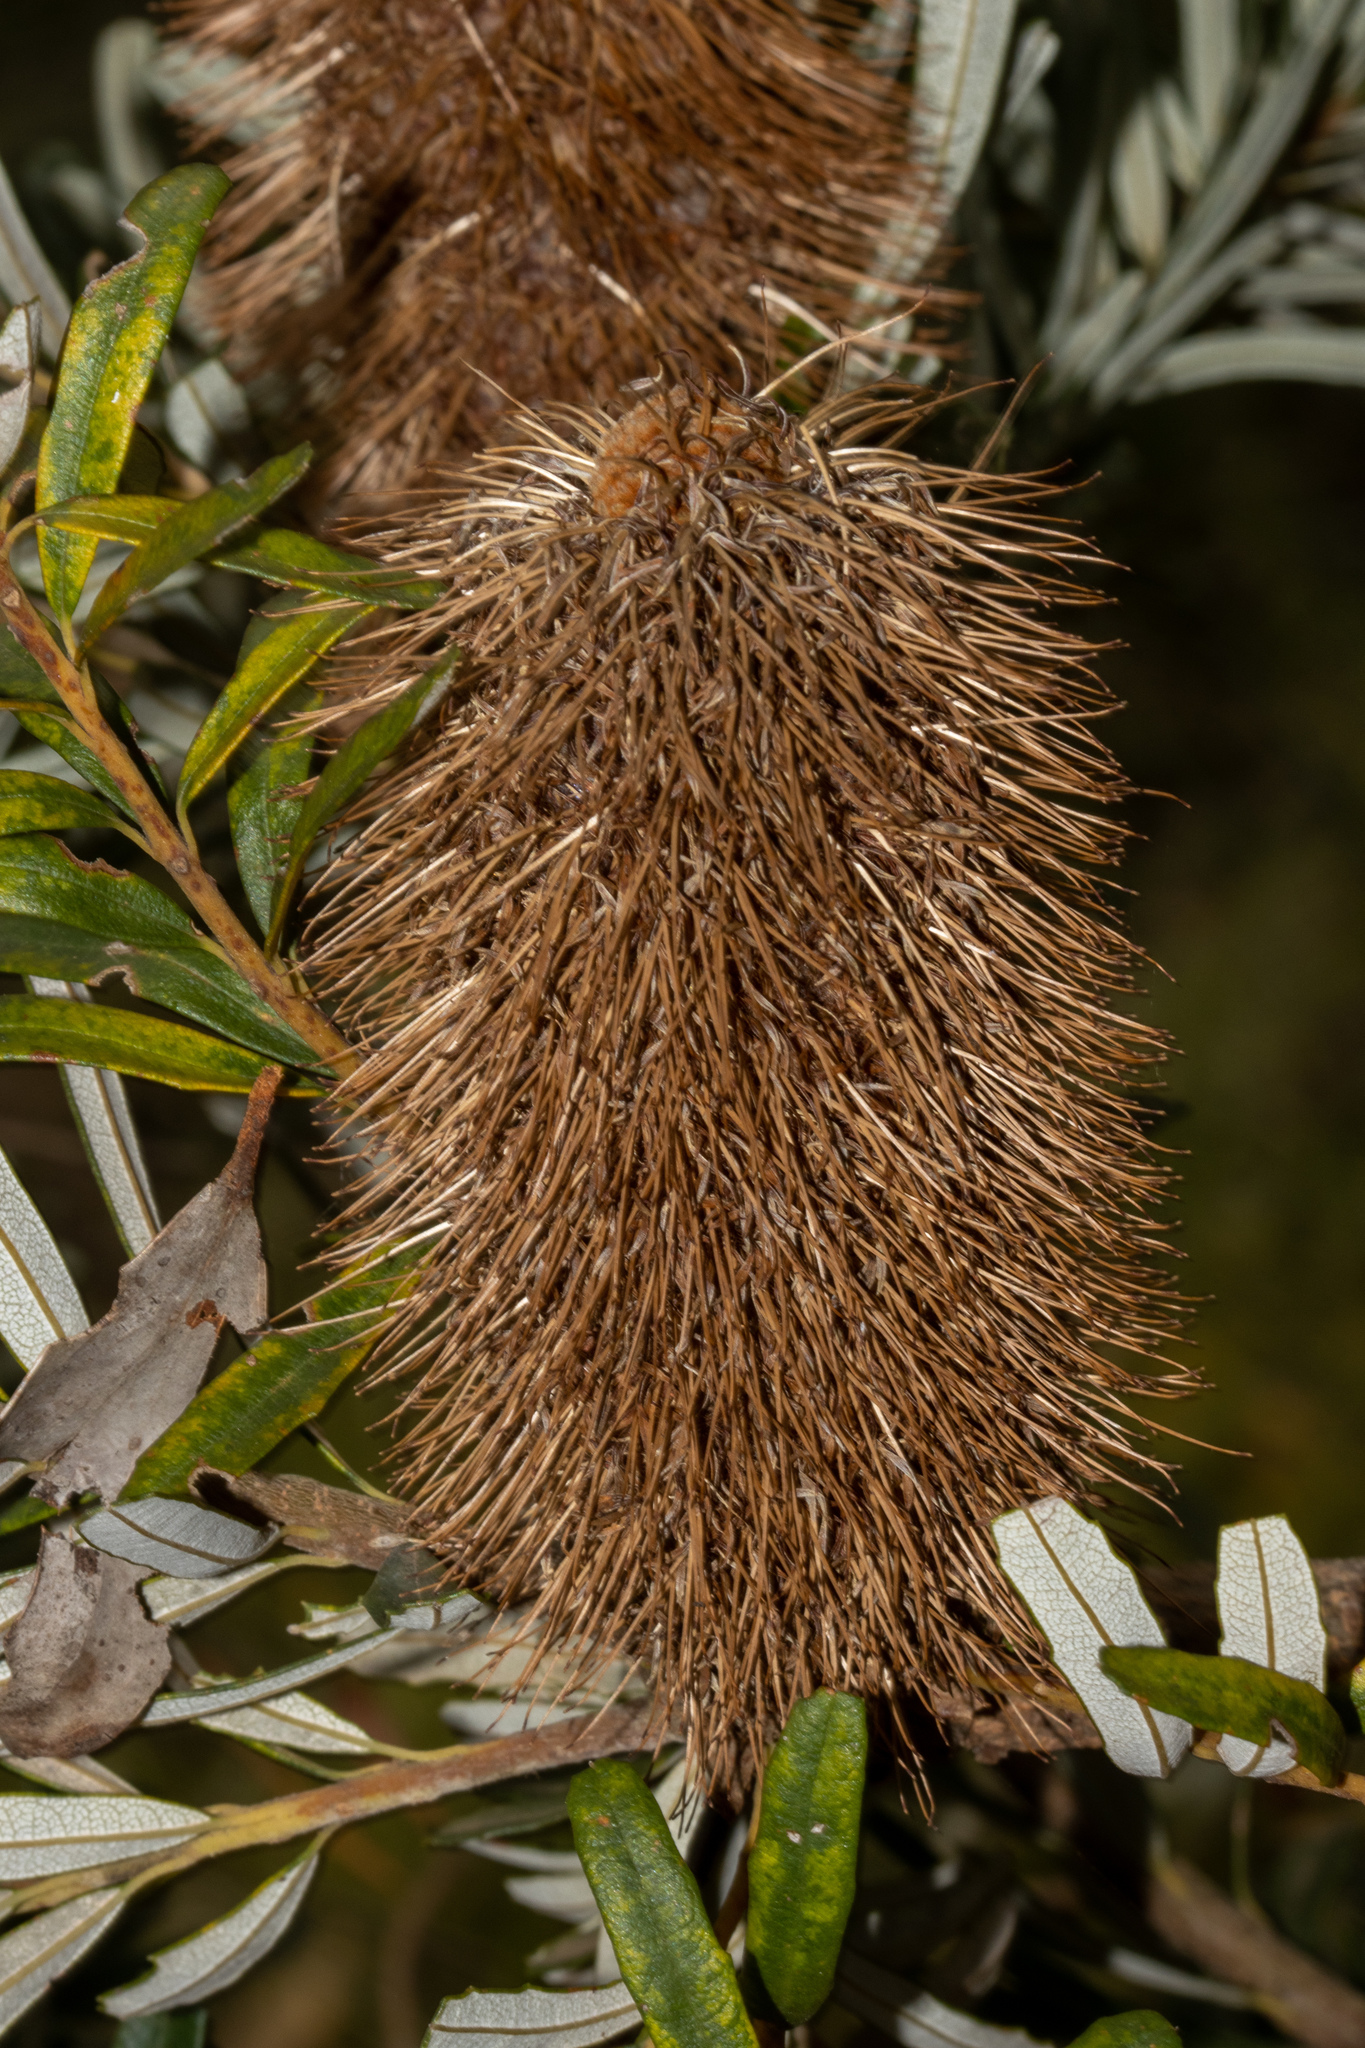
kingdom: Plantae
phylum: Tracheophyta
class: Magnoliopsida
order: Proteales
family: Proteaceae
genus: Banksia
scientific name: Banksia marginata
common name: Silver banksia
